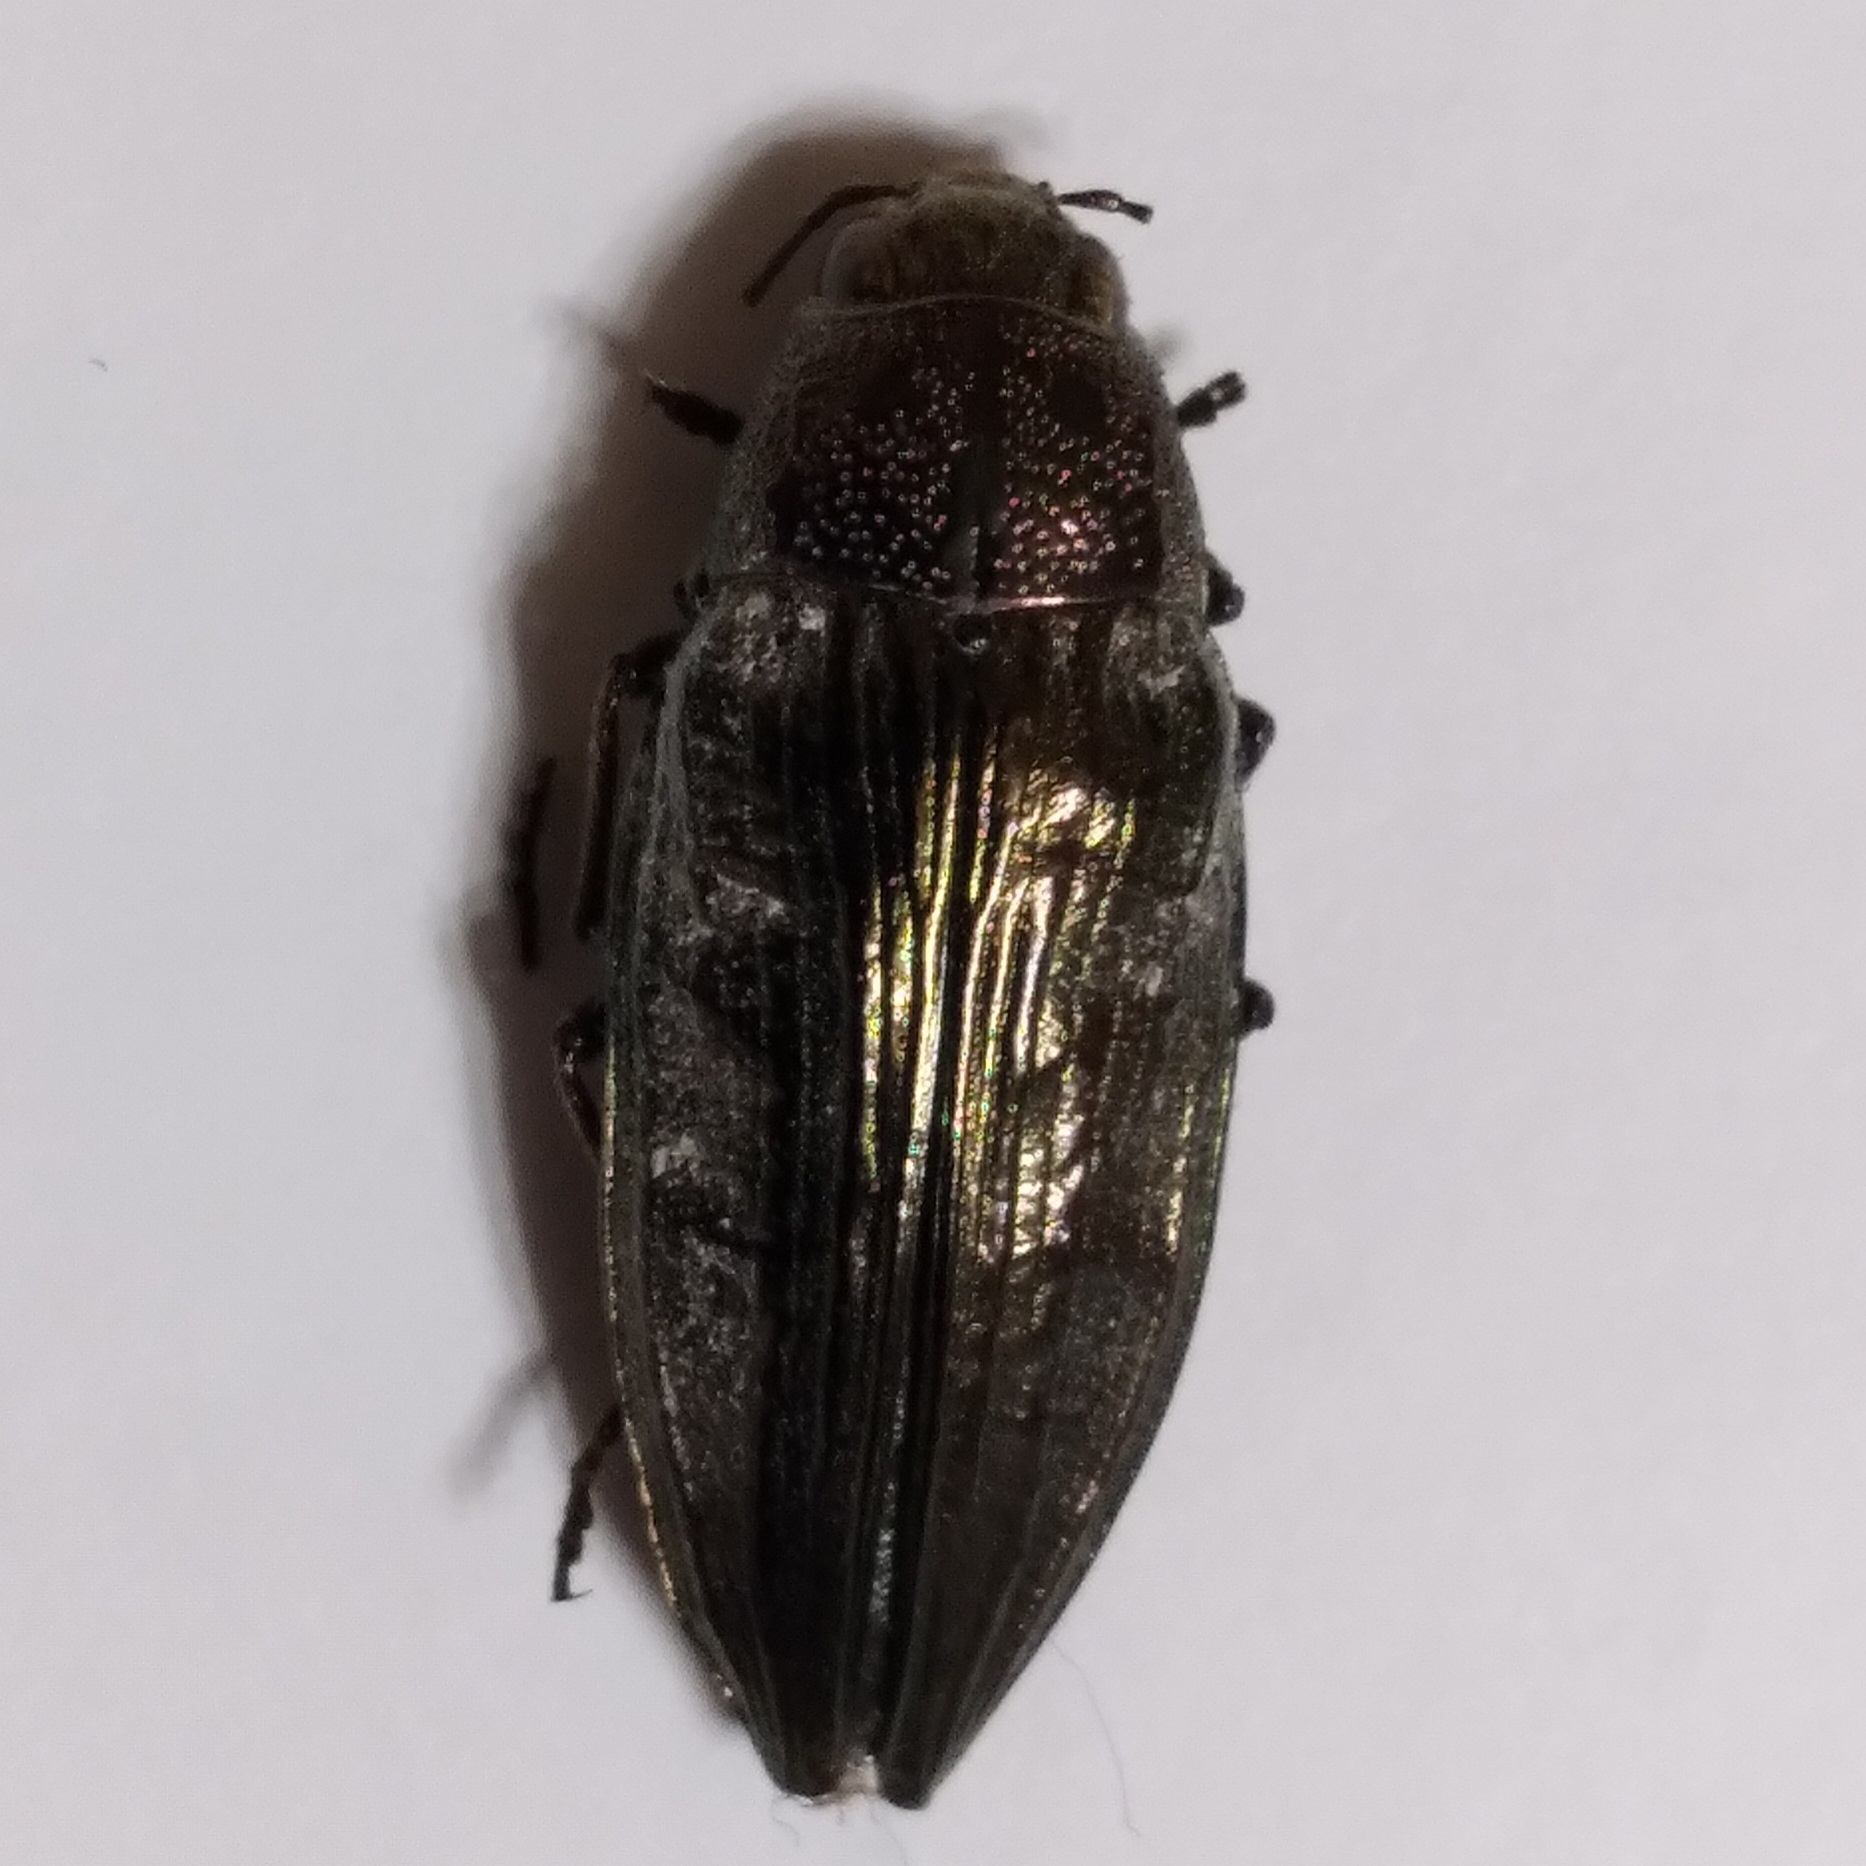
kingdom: Animalia
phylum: Arthropoda
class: Insecta
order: Coleoptera
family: Buprestidae
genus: Buprestis
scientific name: Buprestis maculativentris
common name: Spotted-belly buprestid beetle
